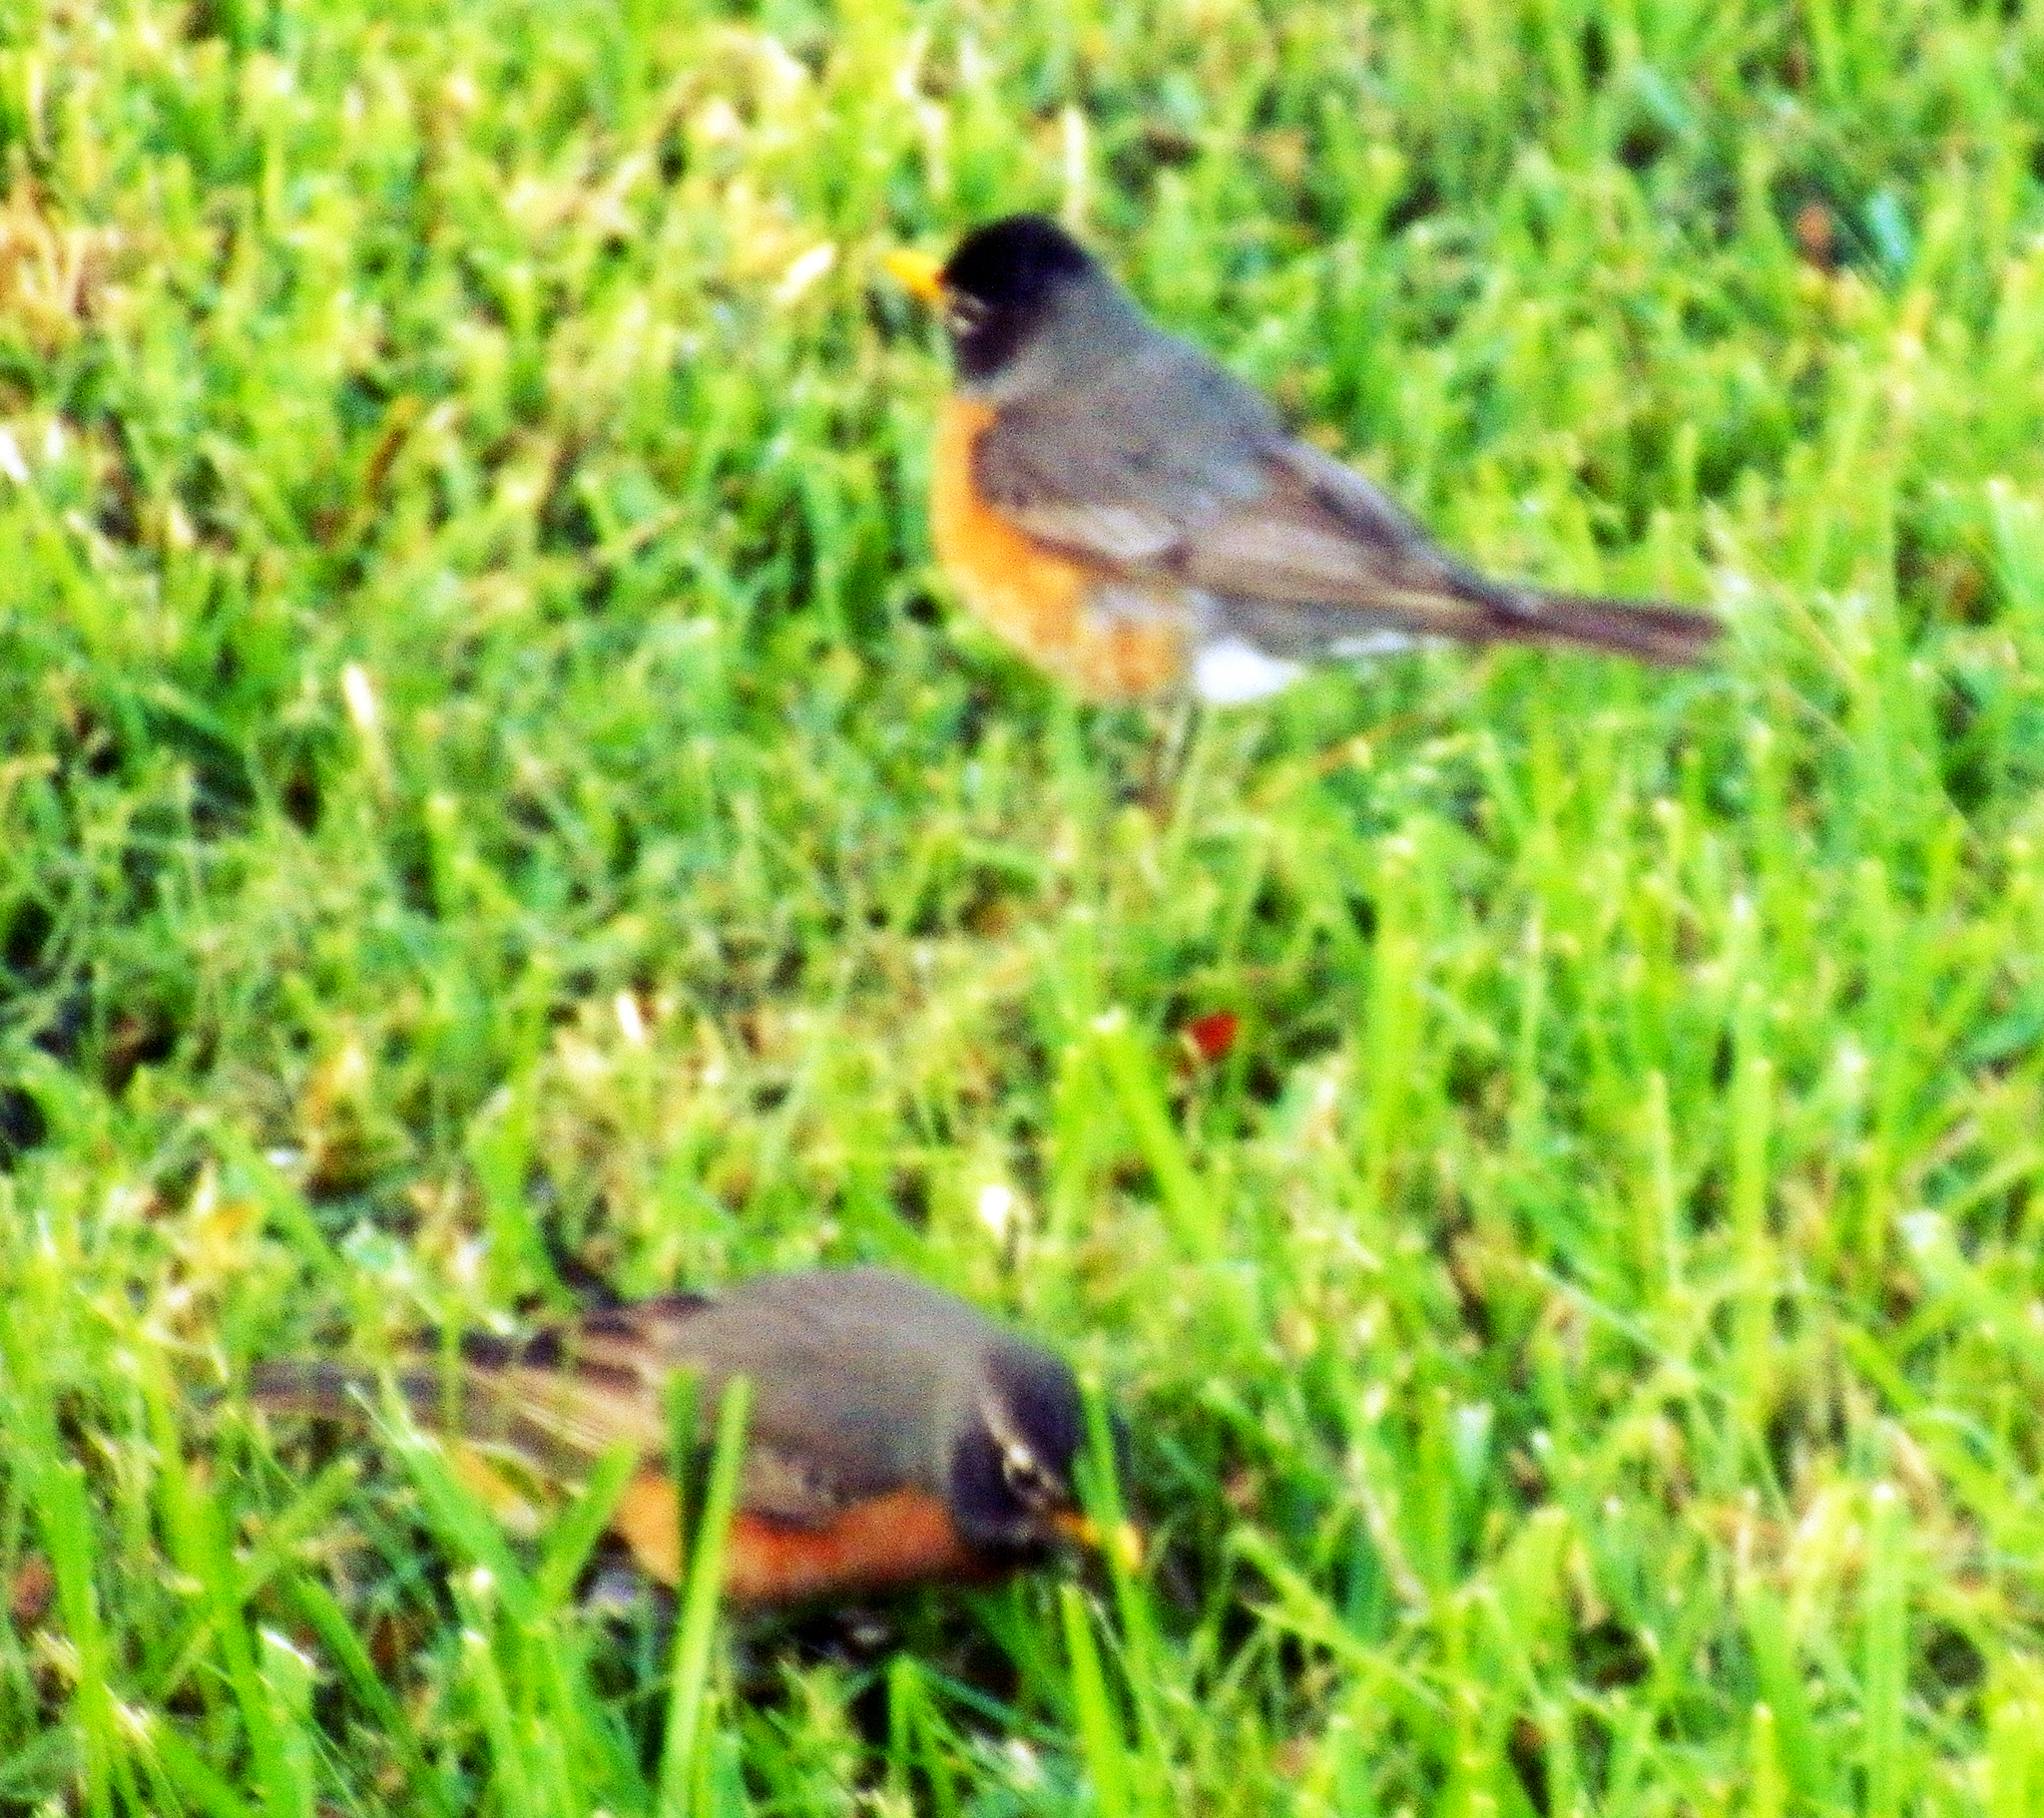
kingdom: Animalia
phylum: Chordata
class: Aves
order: Passeriformes
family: Turdidae
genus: Turdus
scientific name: Turdus migratorius
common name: American robin
